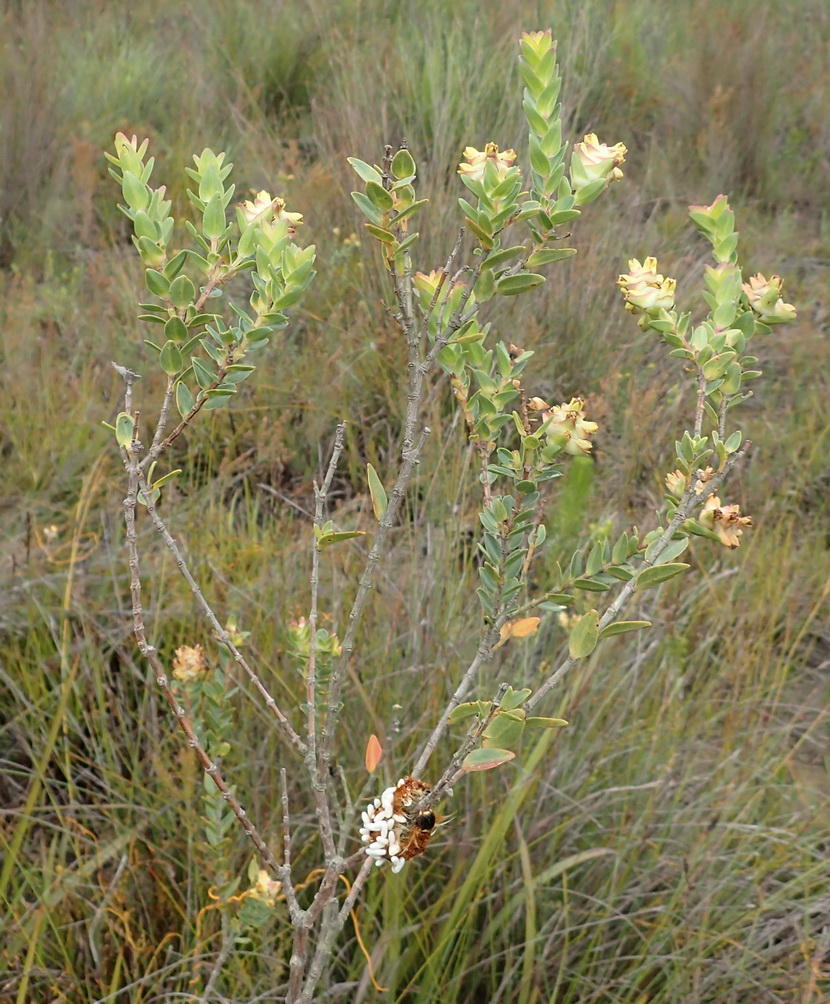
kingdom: Plantae
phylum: Tracheophyta
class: Magnoliopsida
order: Myrtales
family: Penaeaceae
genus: Penaea
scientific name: Penaea cneorum
